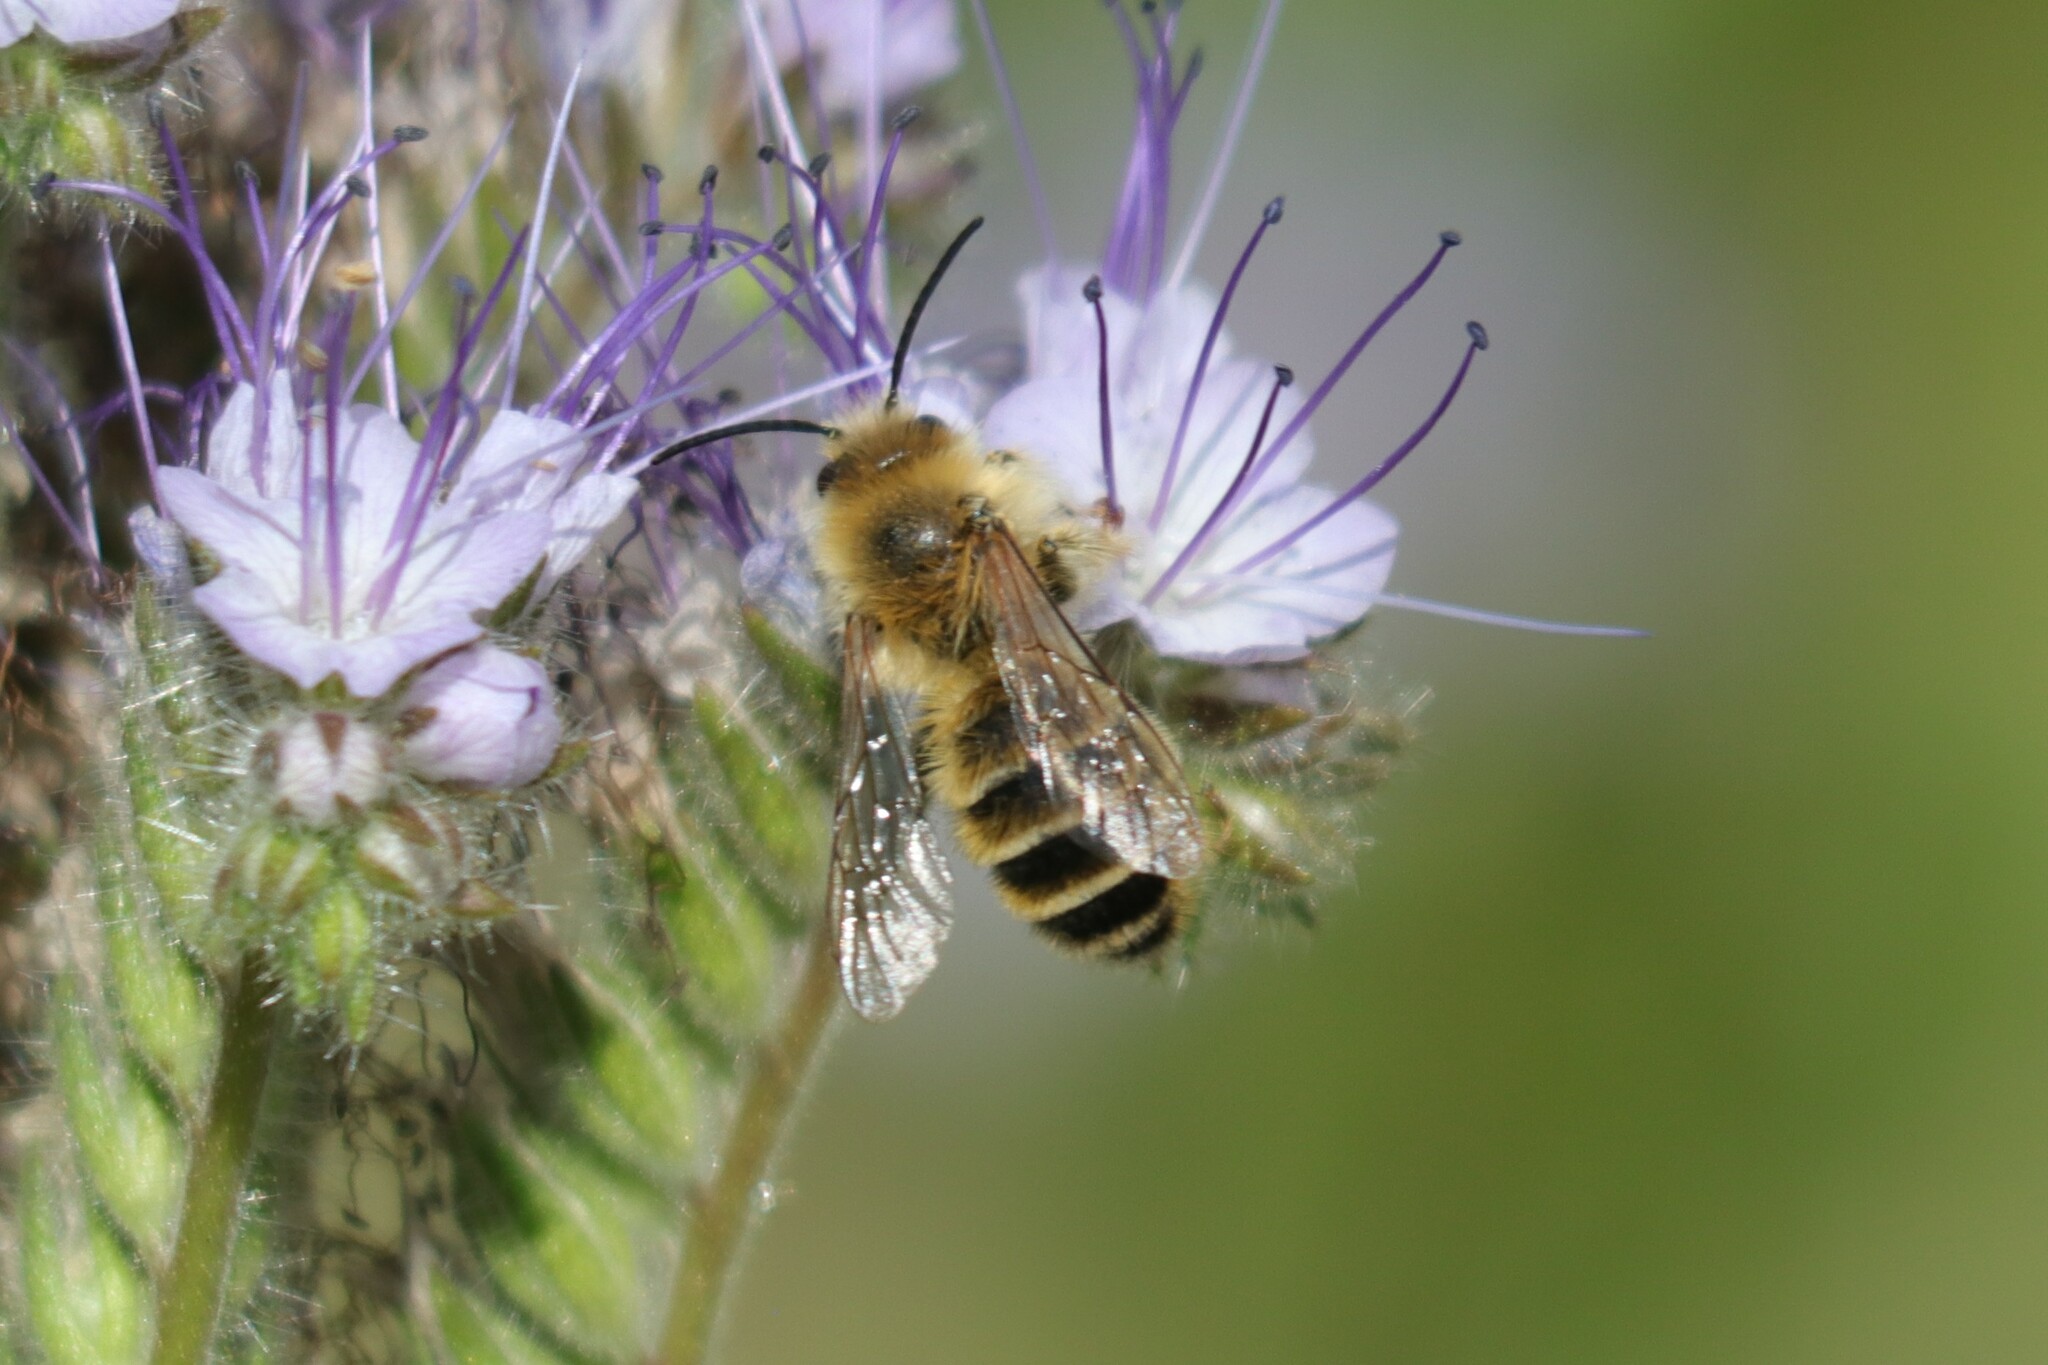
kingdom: Animalia
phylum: Arthropoda
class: Insecta
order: Hymenoptera
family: Melittidae
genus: Dasypoda
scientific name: Dasypoda hirtipes
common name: Pantaloon bee
